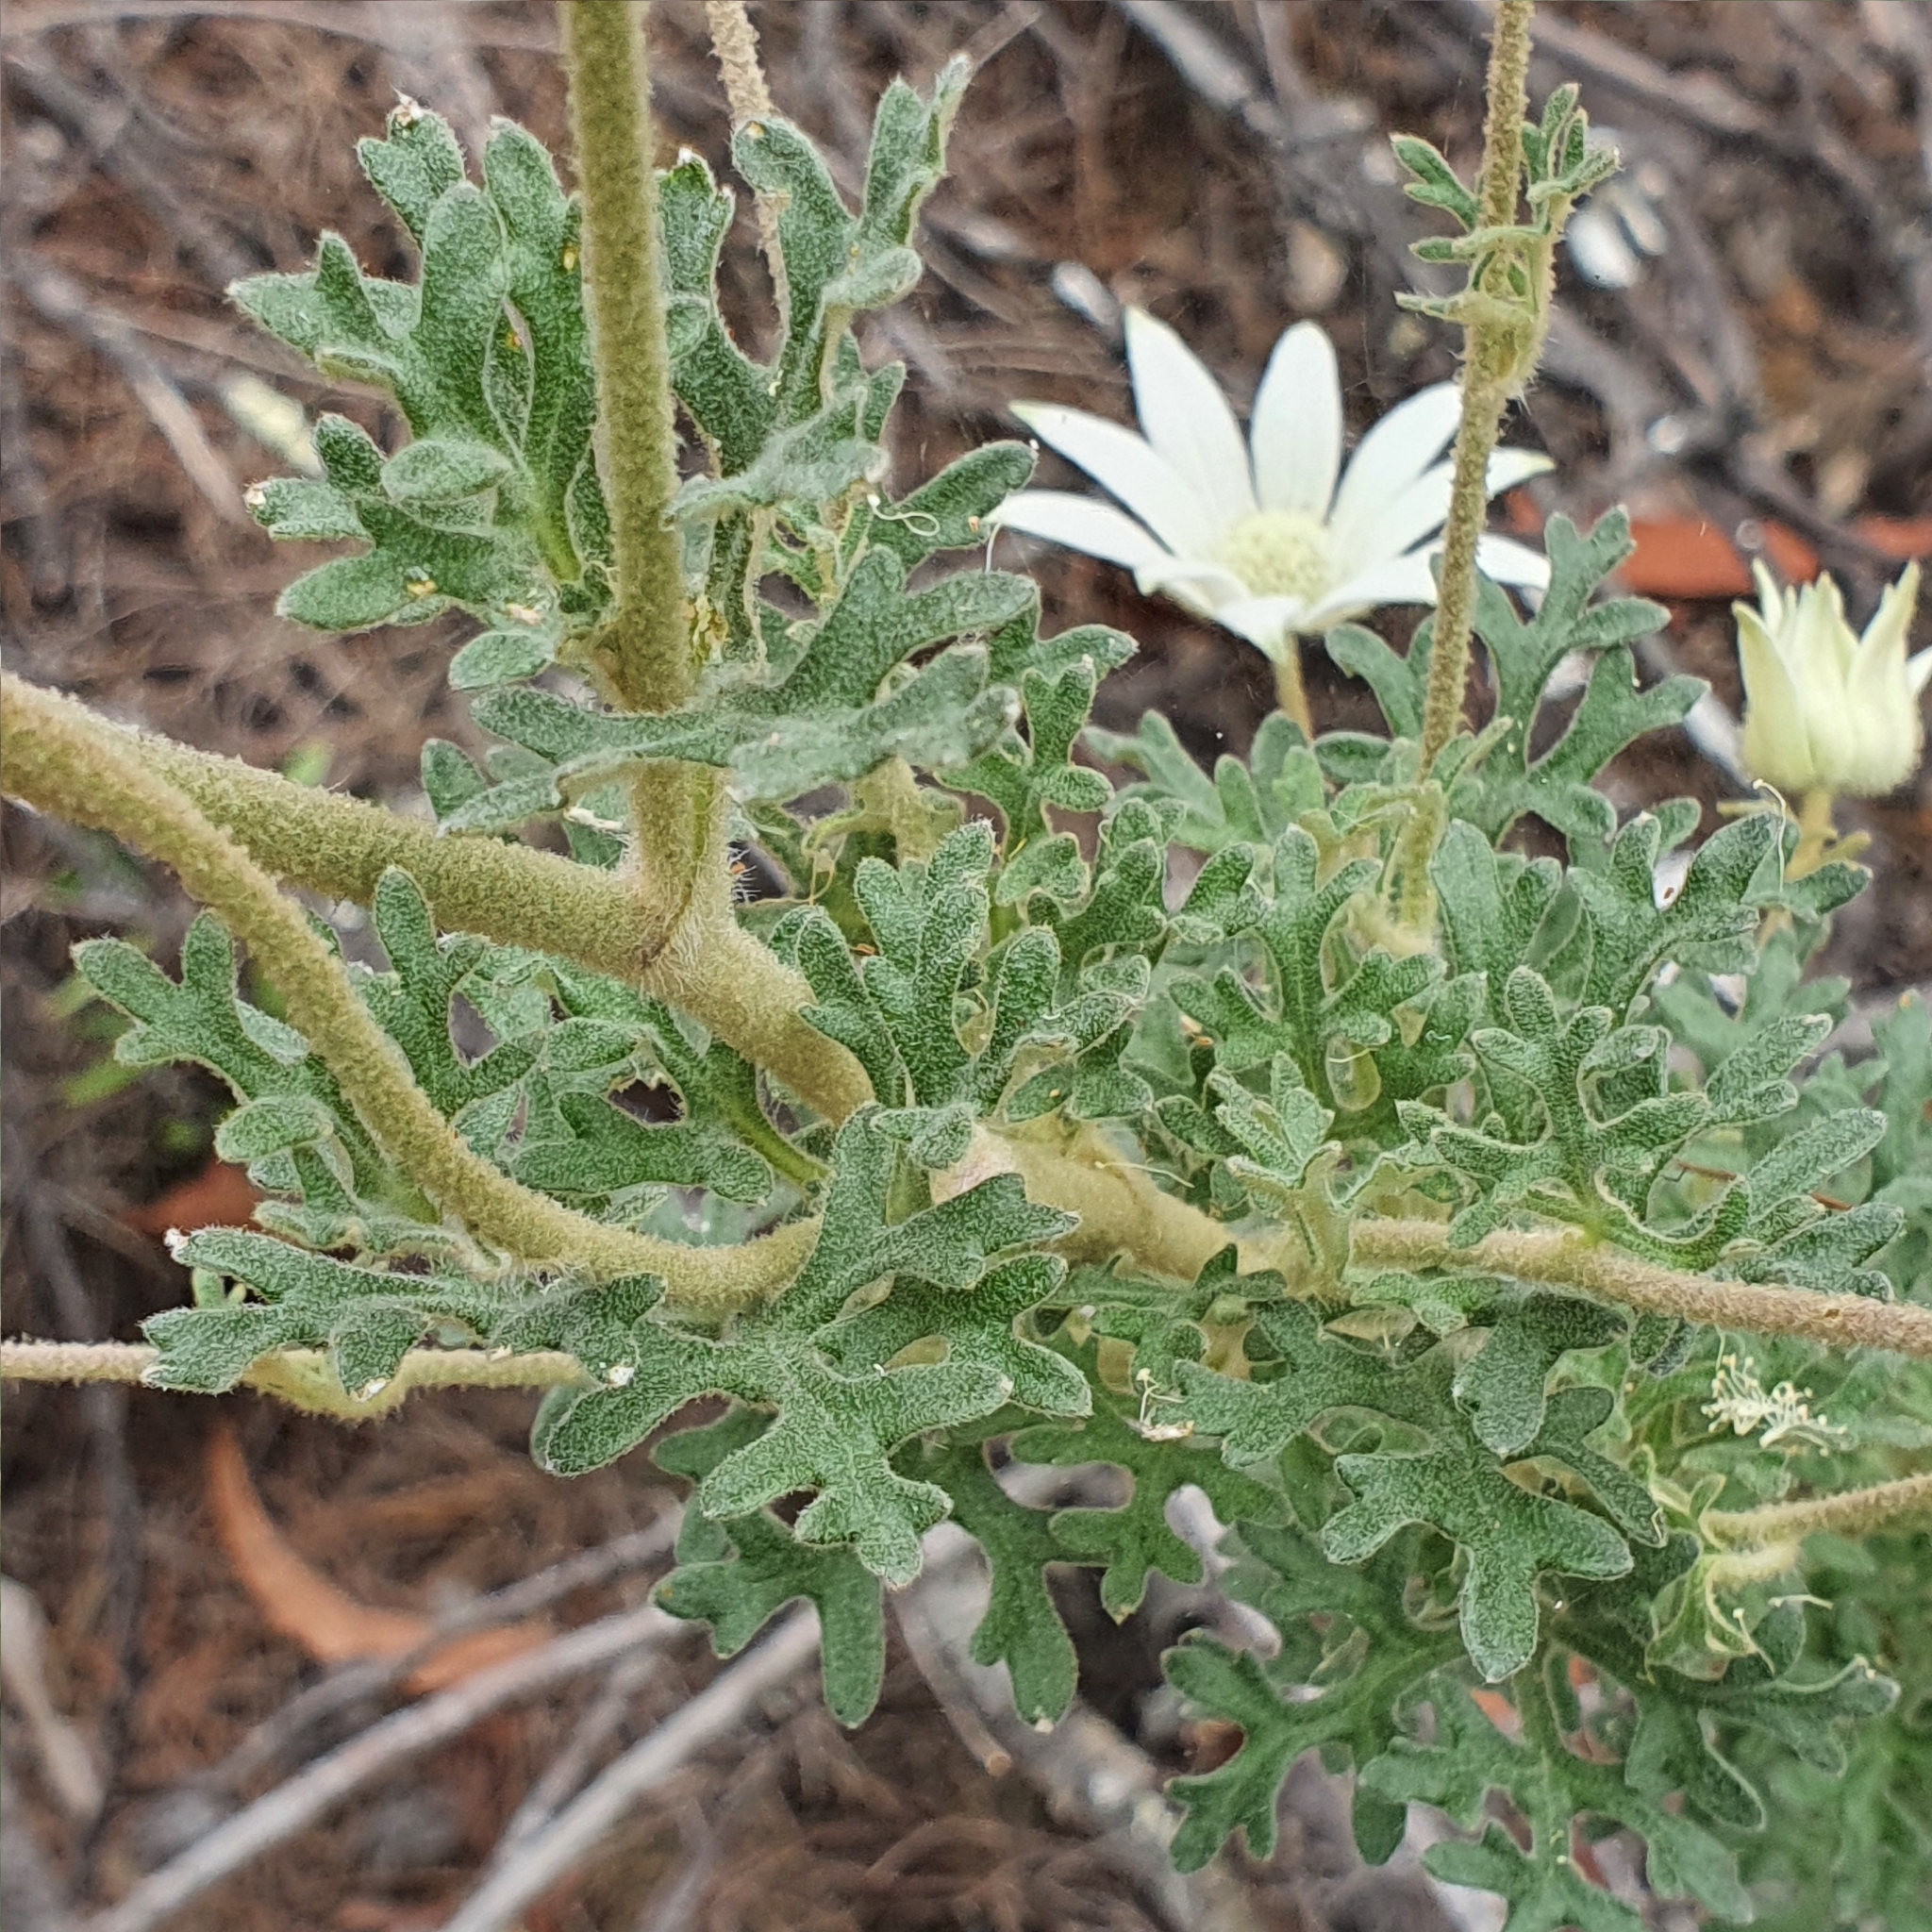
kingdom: Plantae
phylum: Tracheophyta
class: Magnoliopsida
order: Apiales
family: Apiaceae
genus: Actinotus
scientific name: Actinotus helianthi
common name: Flannel-flower
